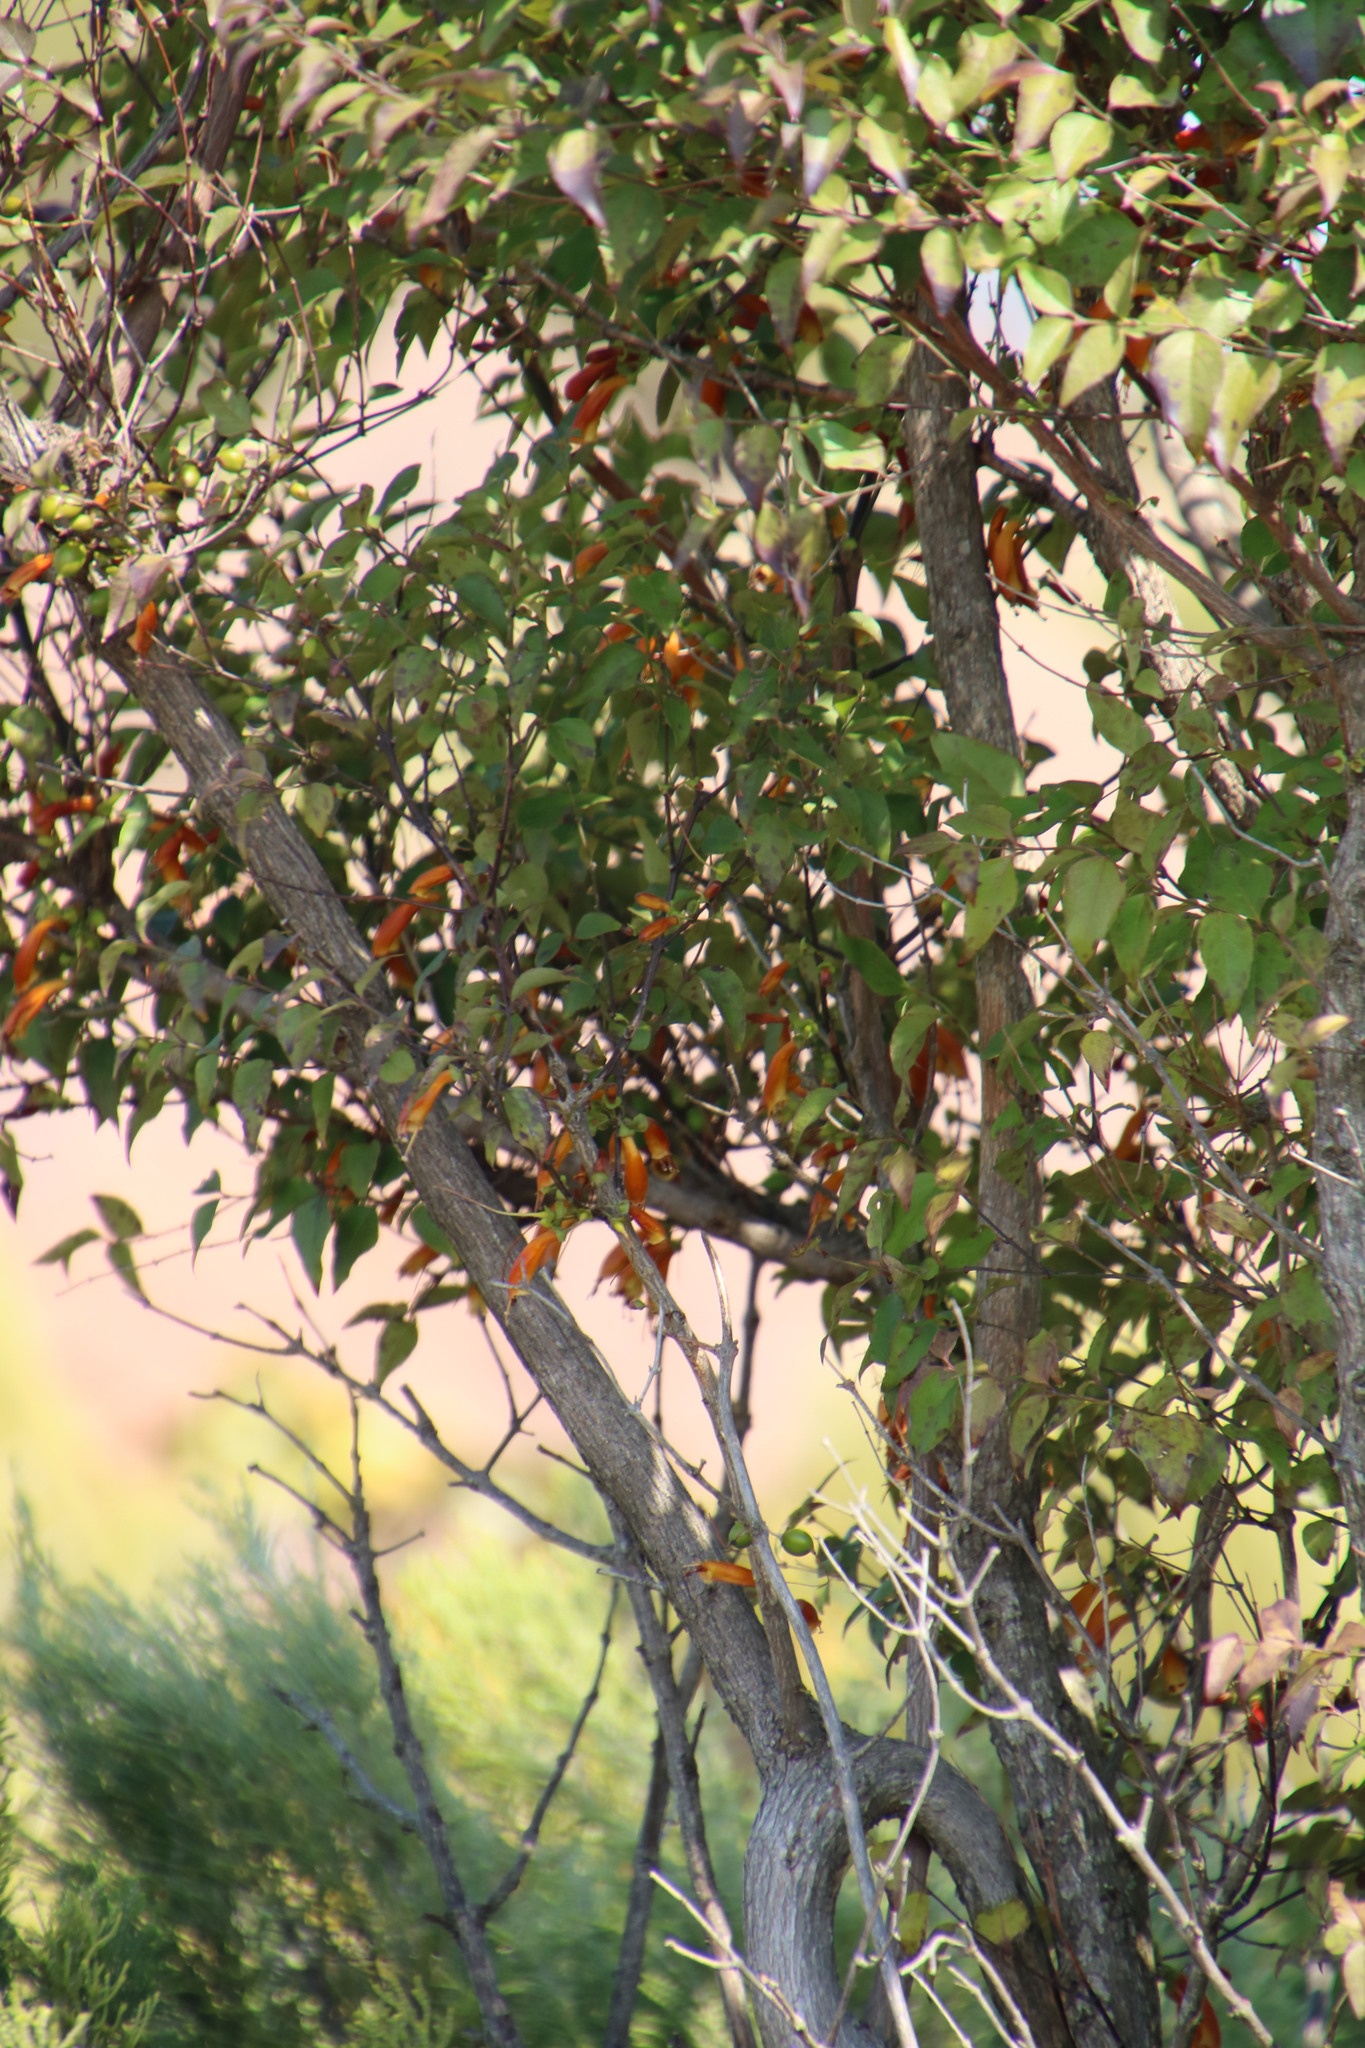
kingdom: Plantae
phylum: Tracheophyta
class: Magnoliopsida
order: Lamiales
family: Stilbaceae
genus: Halleria
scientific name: Halleria lucida
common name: Tree fuschia
